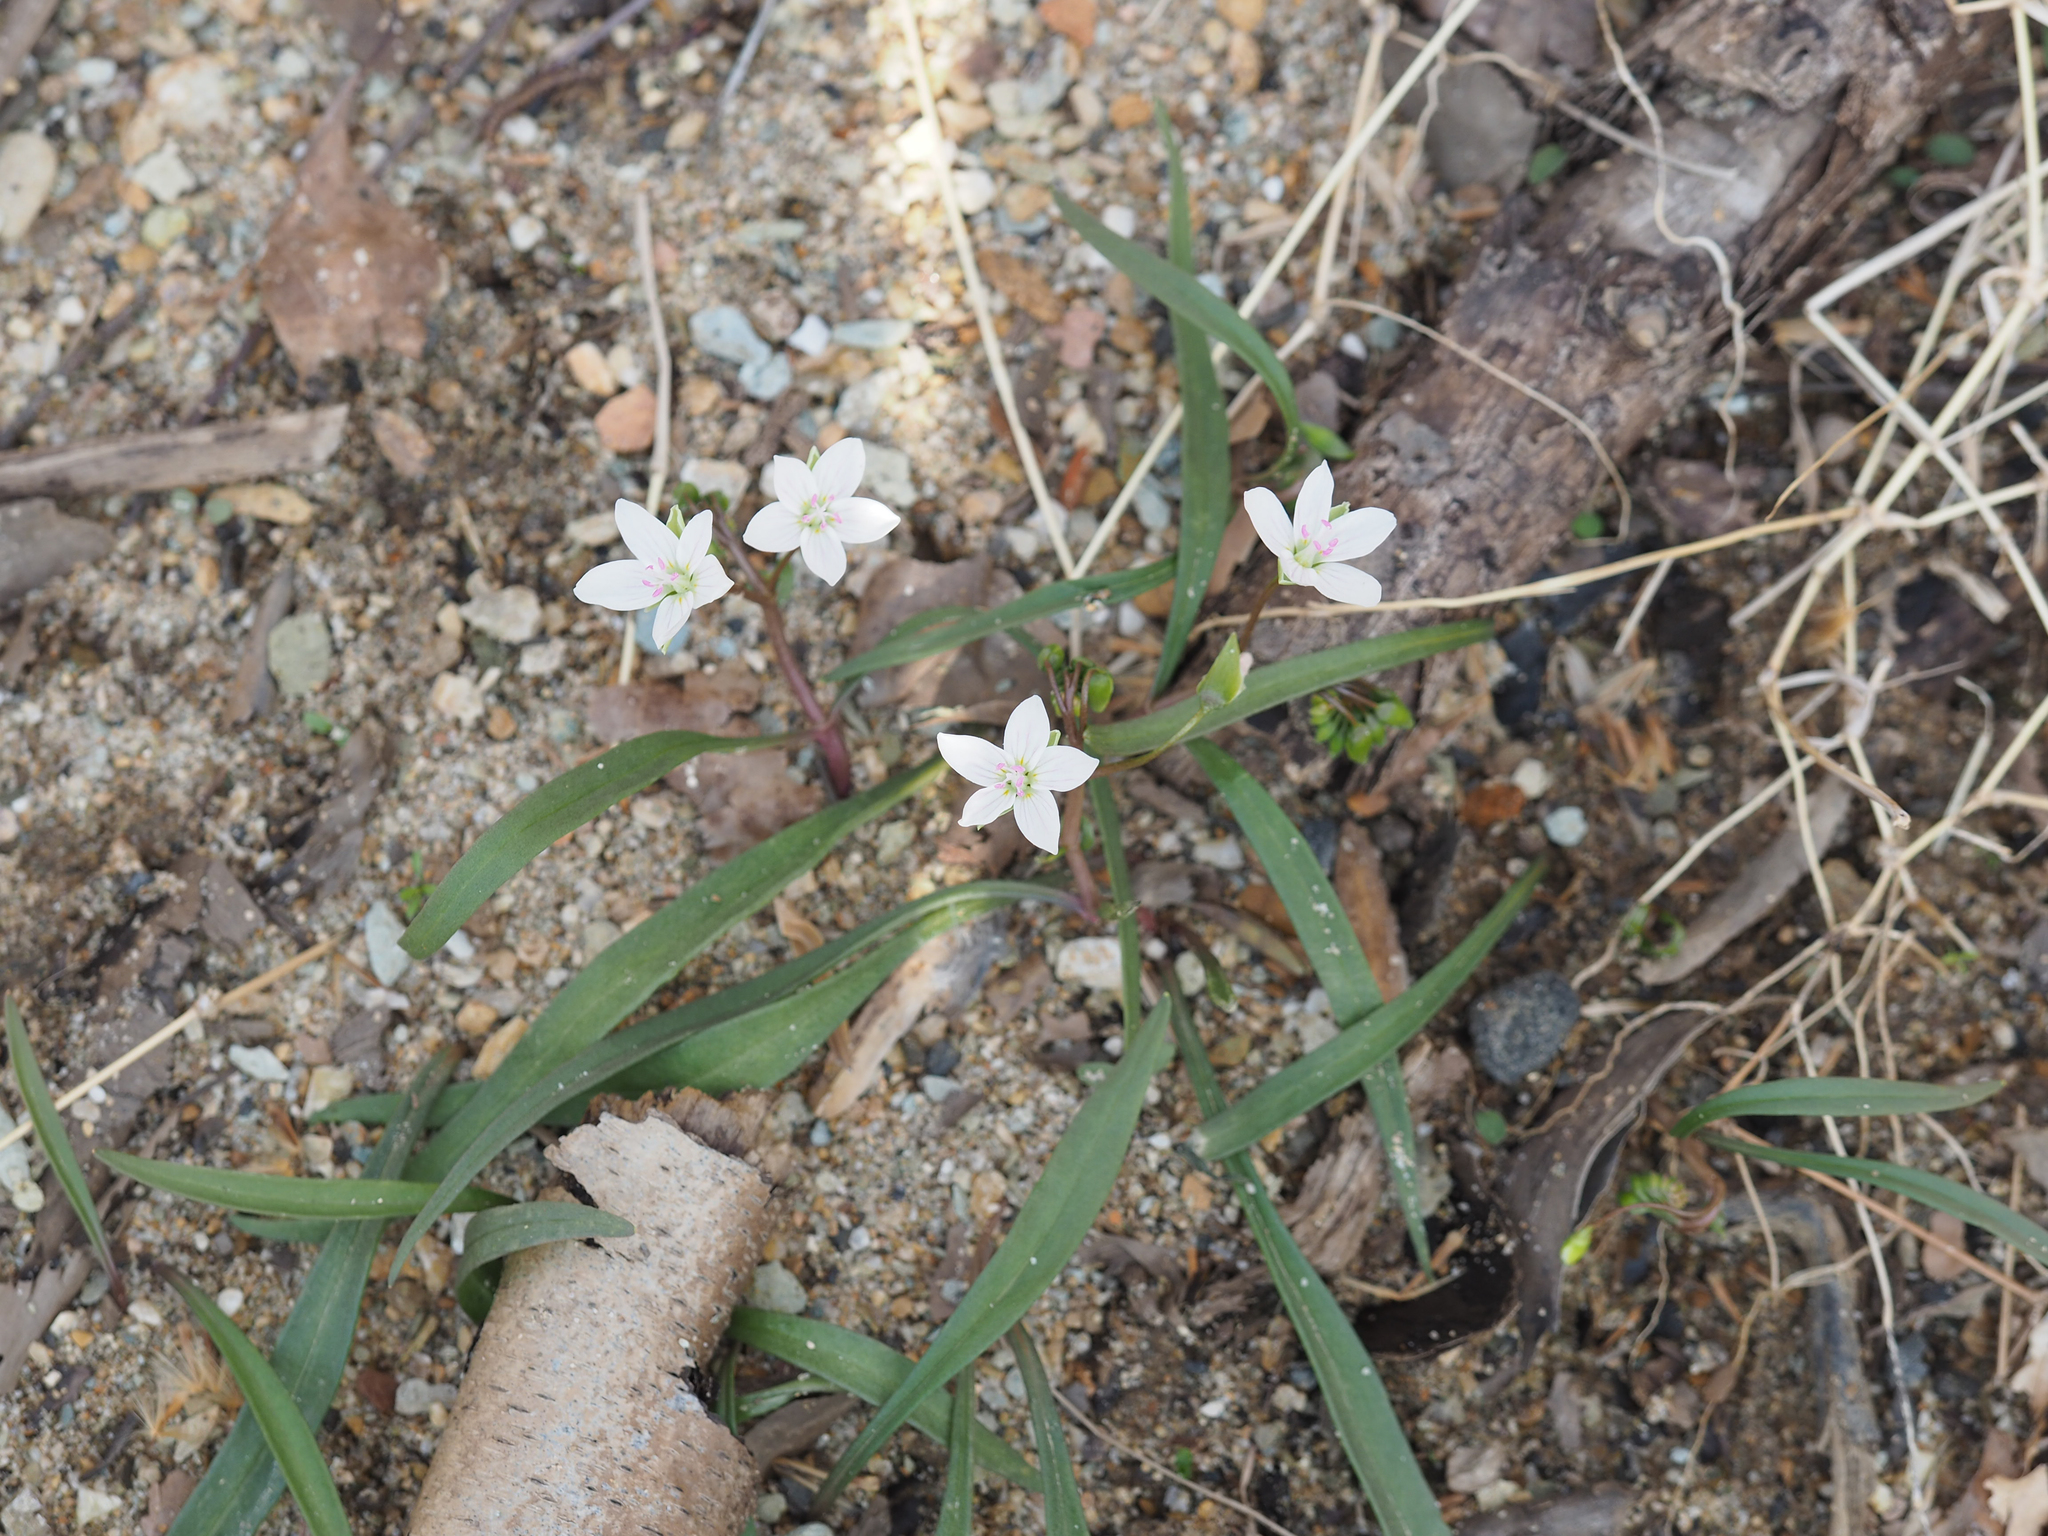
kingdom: Plantae
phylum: Tracheophyta
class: Magnoliopsida
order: Caryophyllales
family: Montiaceae
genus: Claytonia
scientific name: Claytonia virginica
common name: Virginia springbeauty
